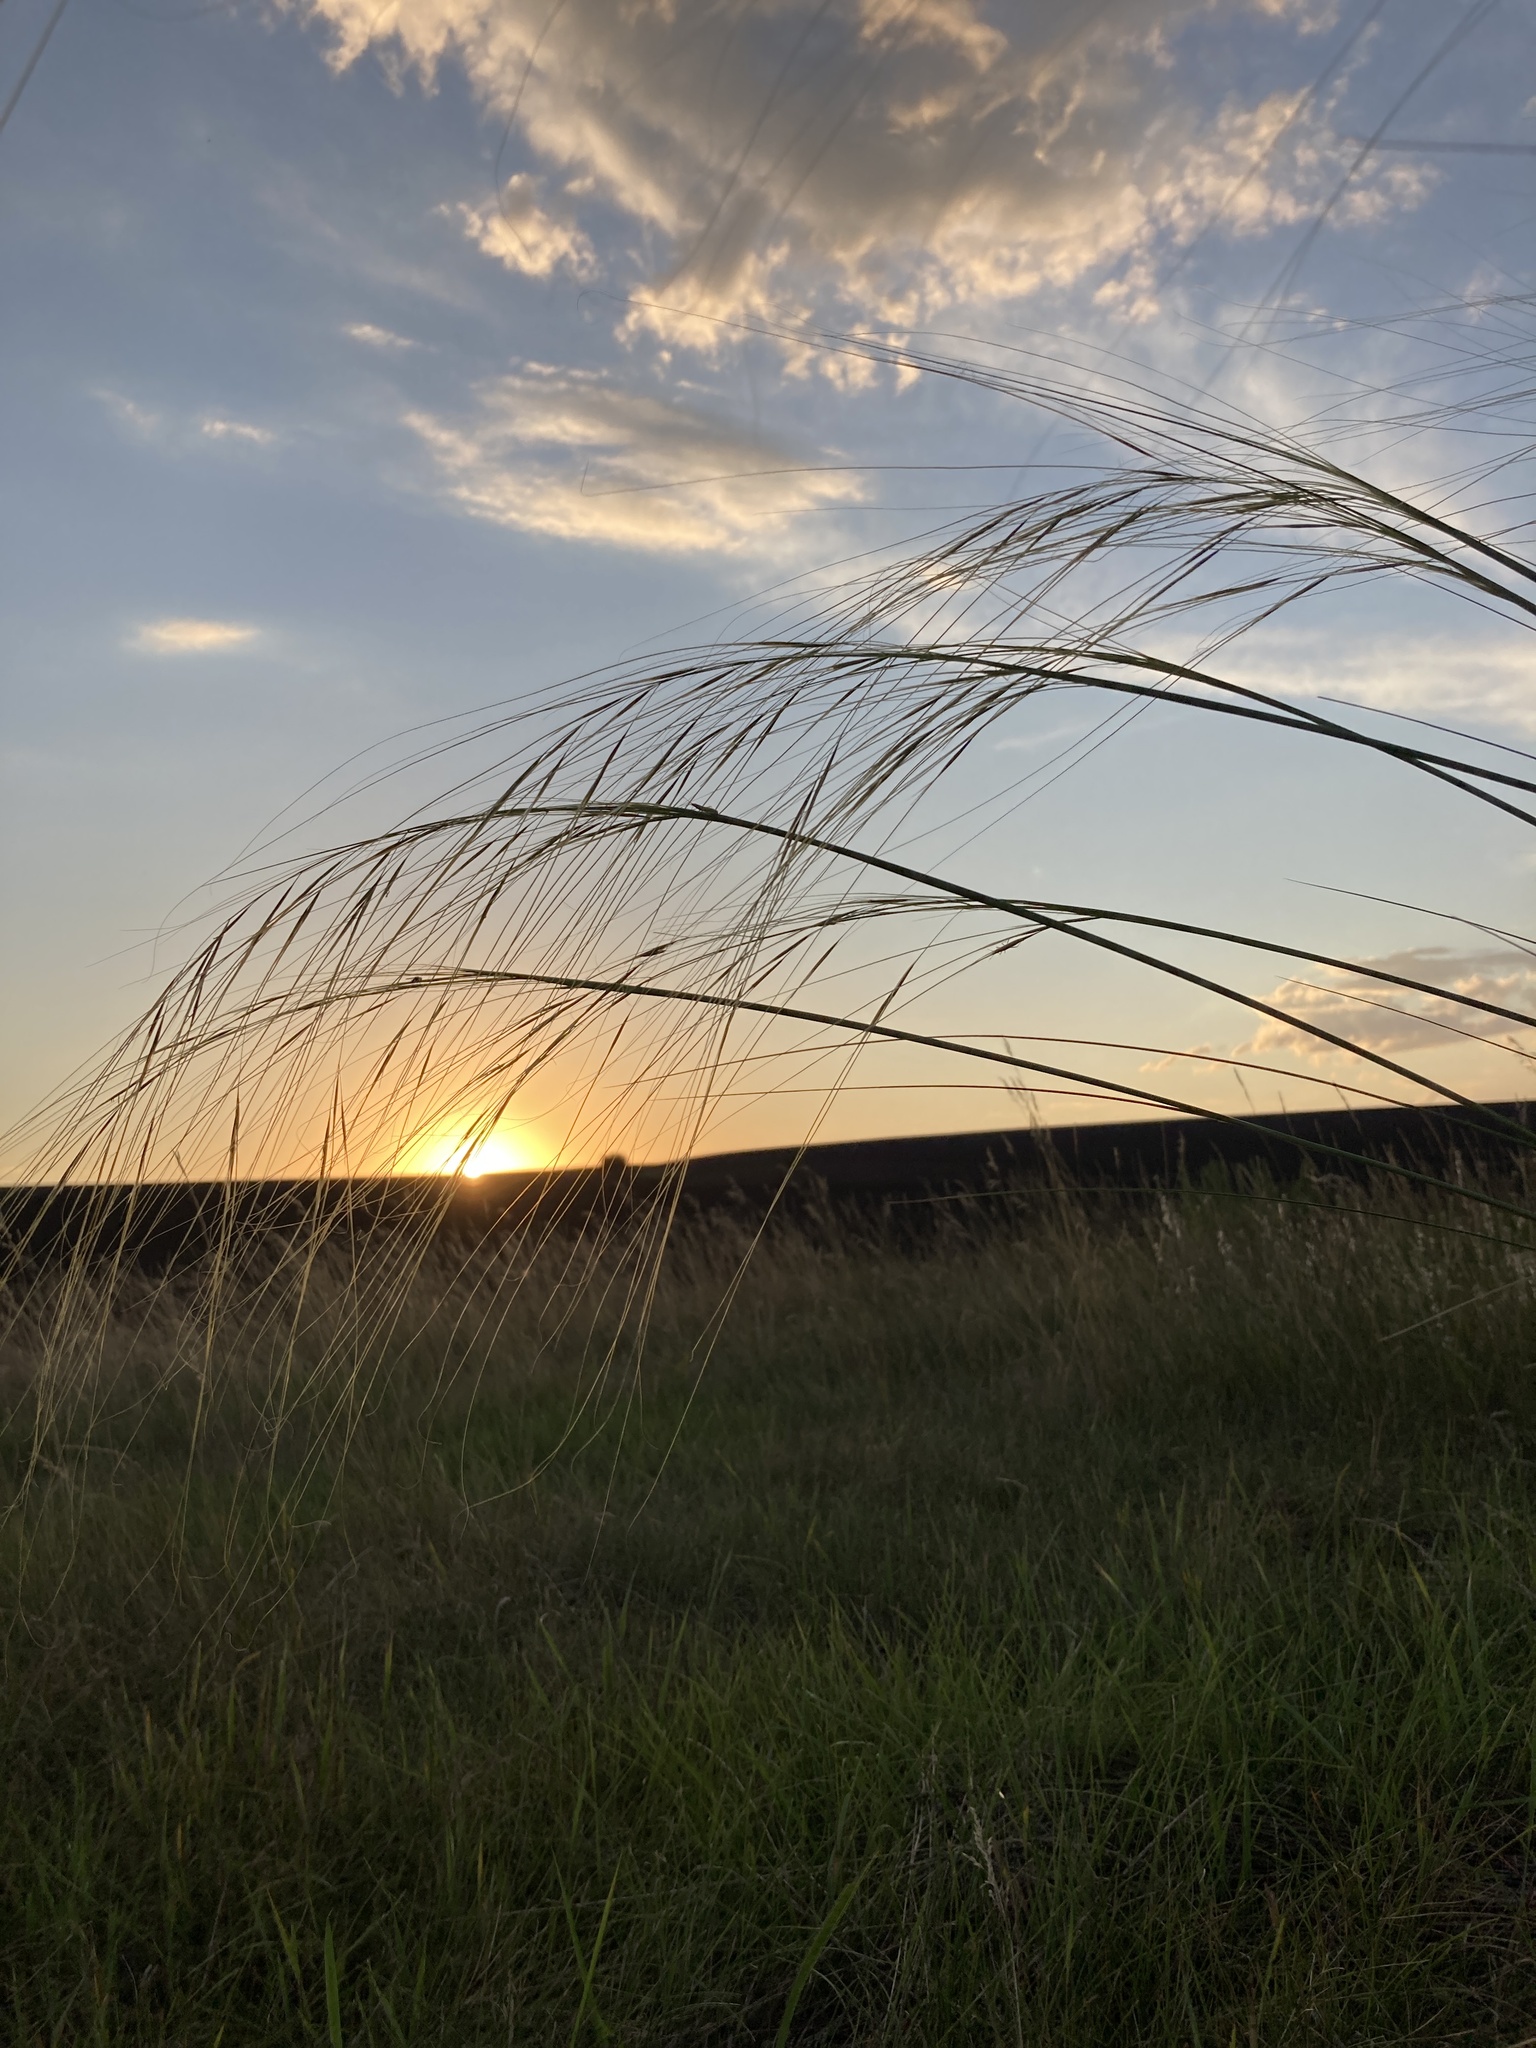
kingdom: Plantae
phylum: Tracheophyta
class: Liliopsida
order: Poales
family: Poaceae
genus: Stipa
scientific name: Stipa capillata
